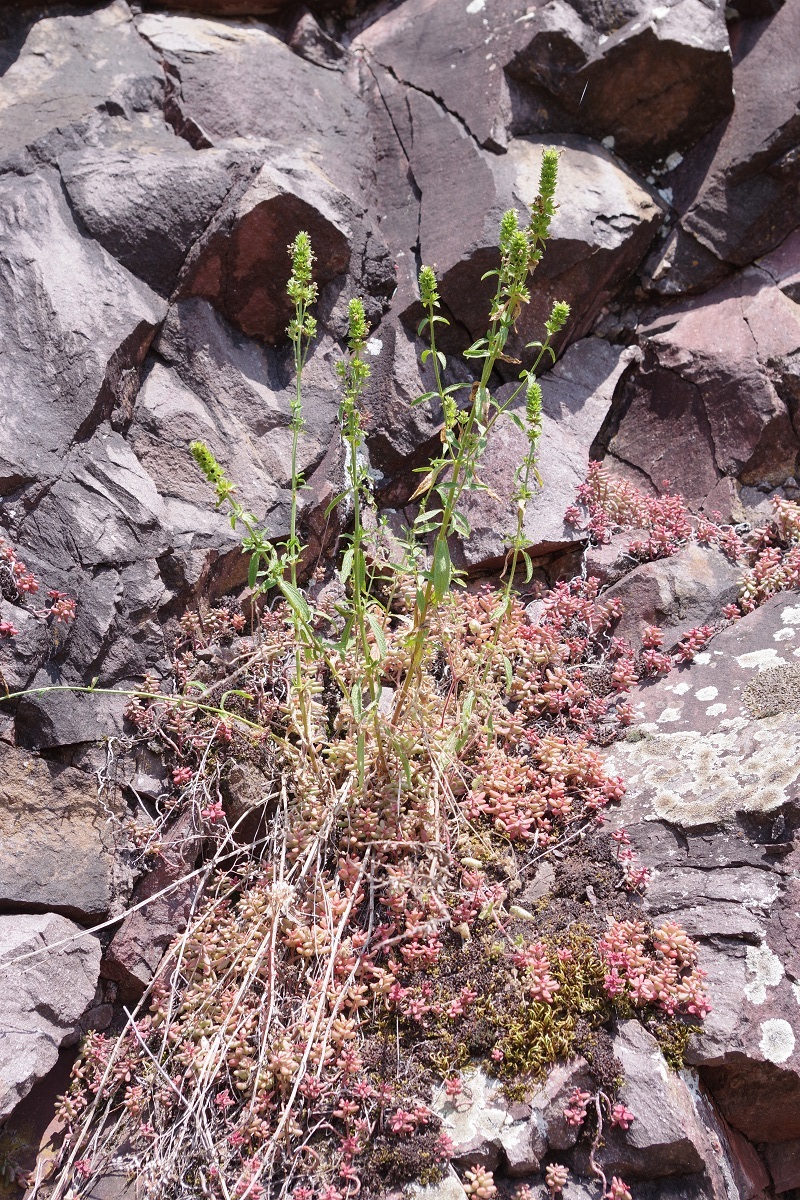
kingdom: Plantae
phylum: Tracheophyta
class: Magnoliopsida
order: Lamiales
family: Lamiaceae
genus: Stachys
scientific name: Stachys recta
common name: Perennial yellow-woundwort
